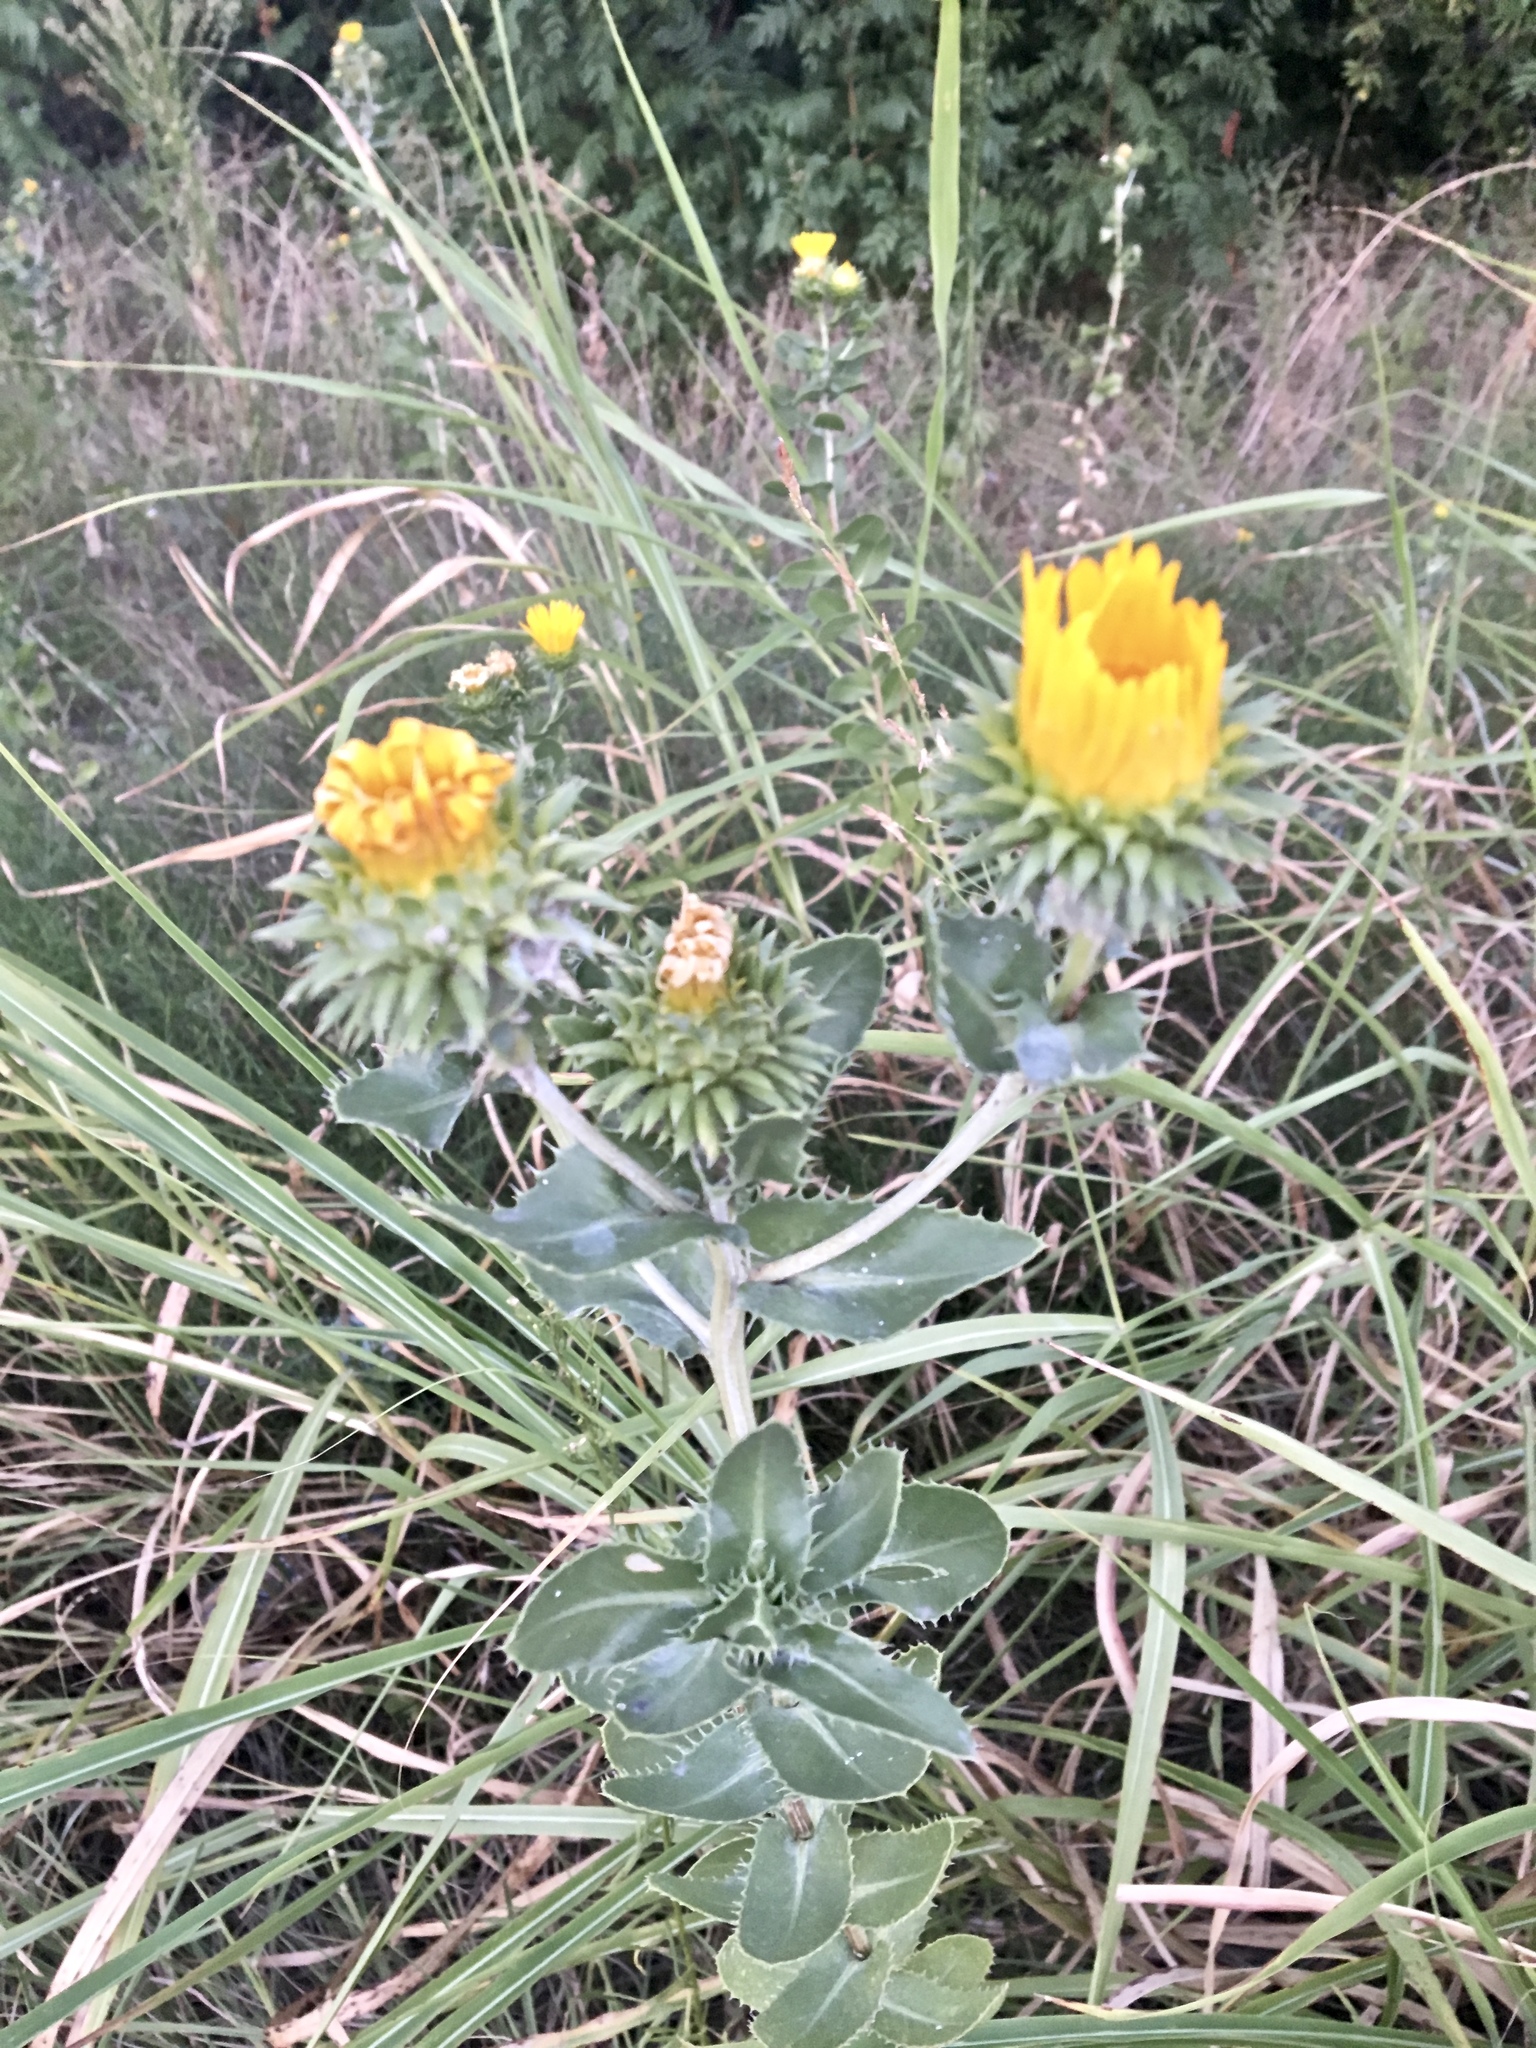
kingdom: Plantae
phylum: Tracheophyta
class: Magnoliopsida
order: Asterales
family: Asteraceae
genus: Grindelia
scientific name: Grindelia ciliata
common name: Goldenweed
